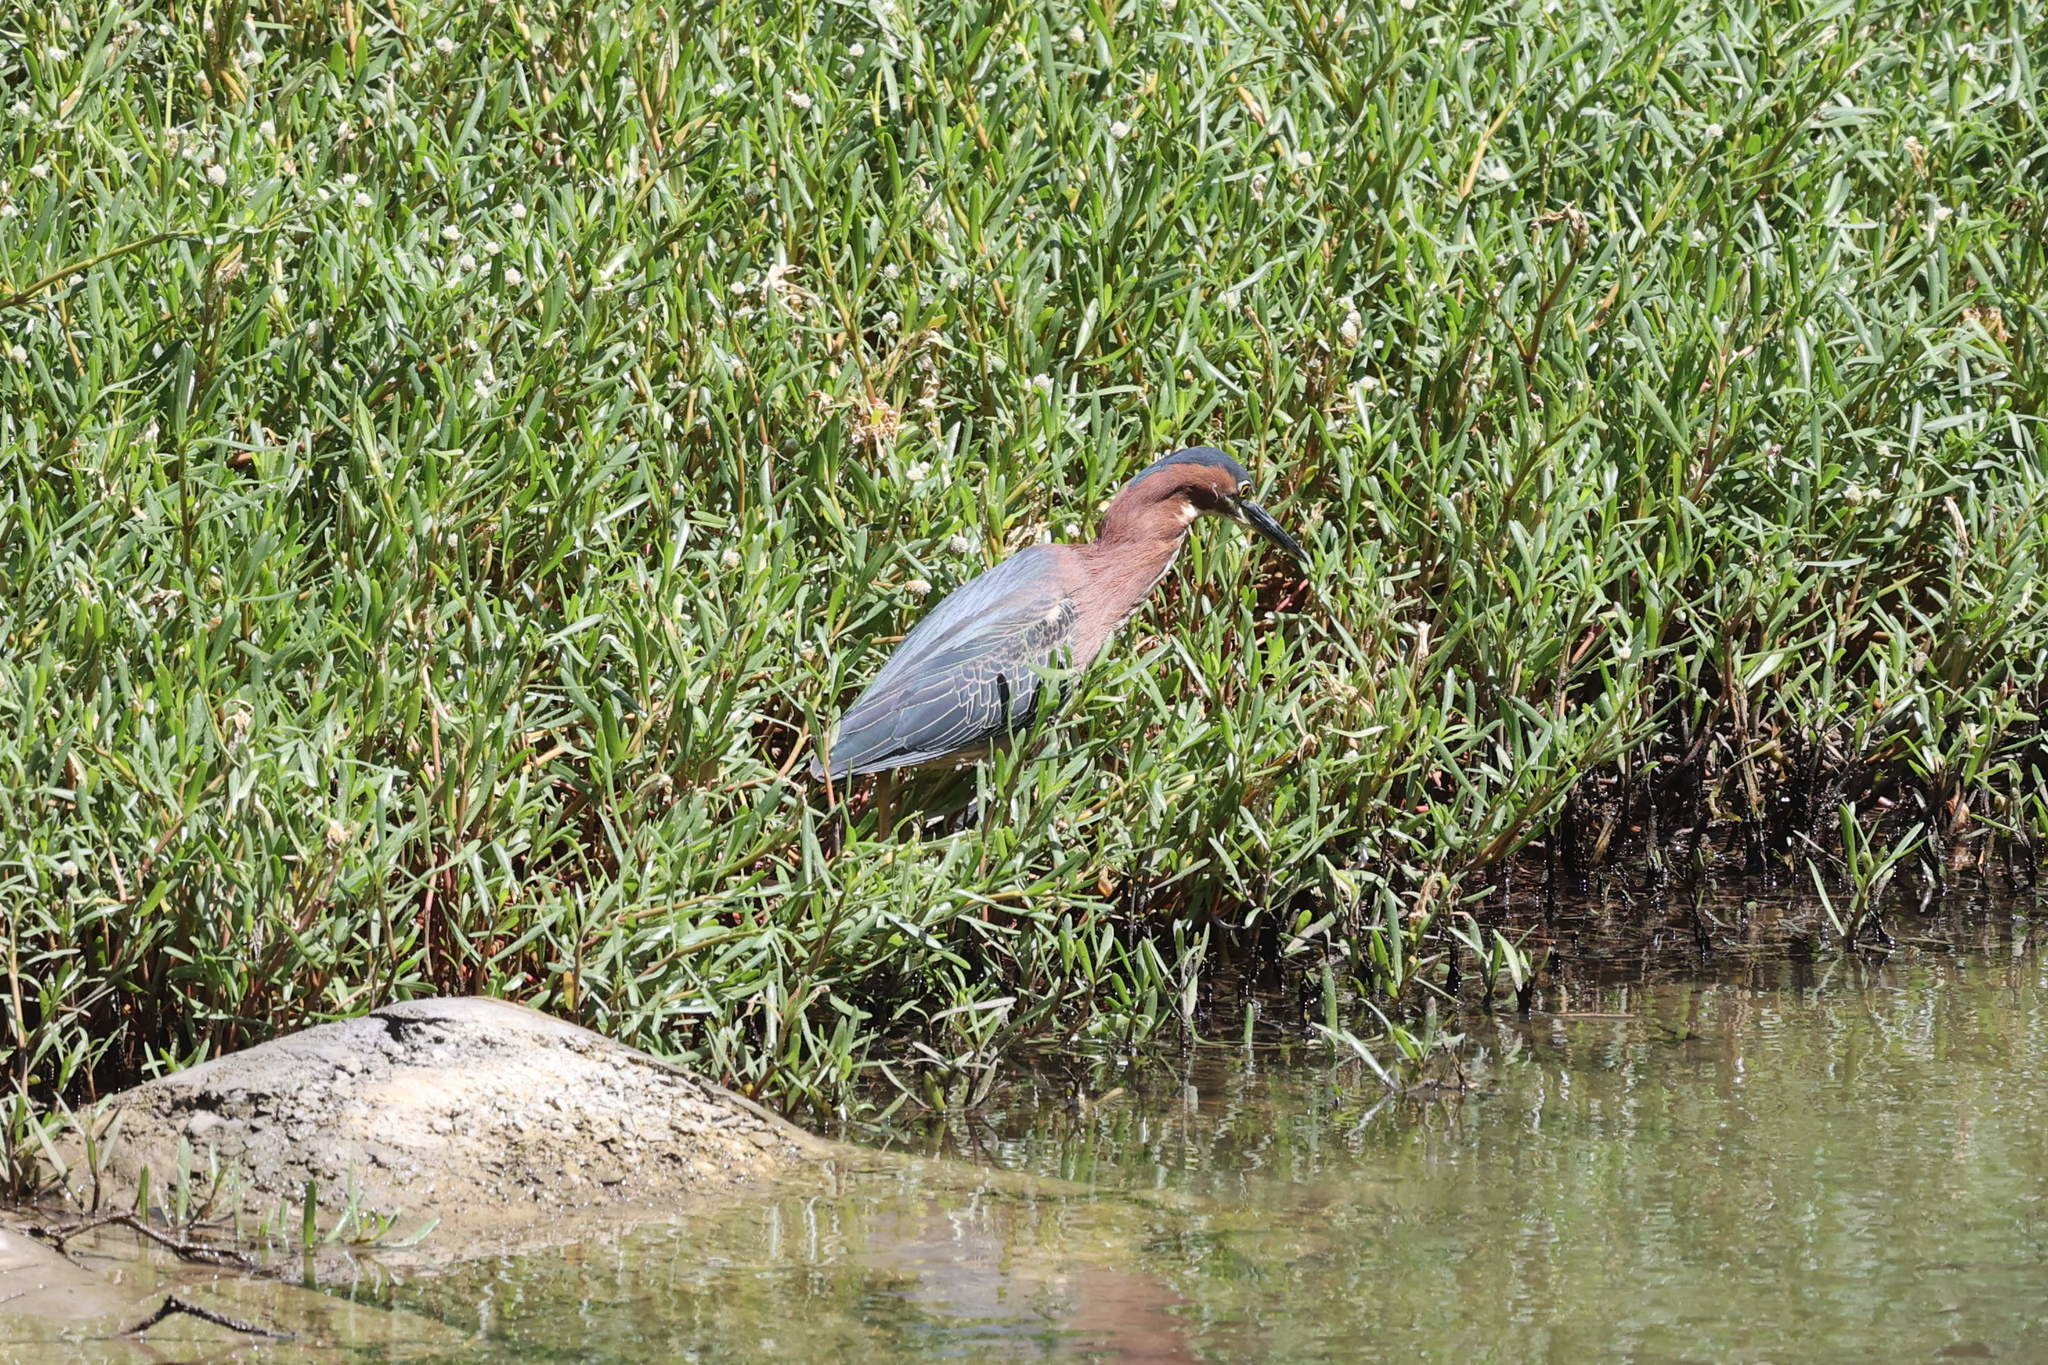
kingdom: Animalia
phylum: Chordata
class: Aves
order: Pelecaniformes
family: Ardeidae
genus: Butorides
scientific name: Butorides virescens
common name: Green heron
